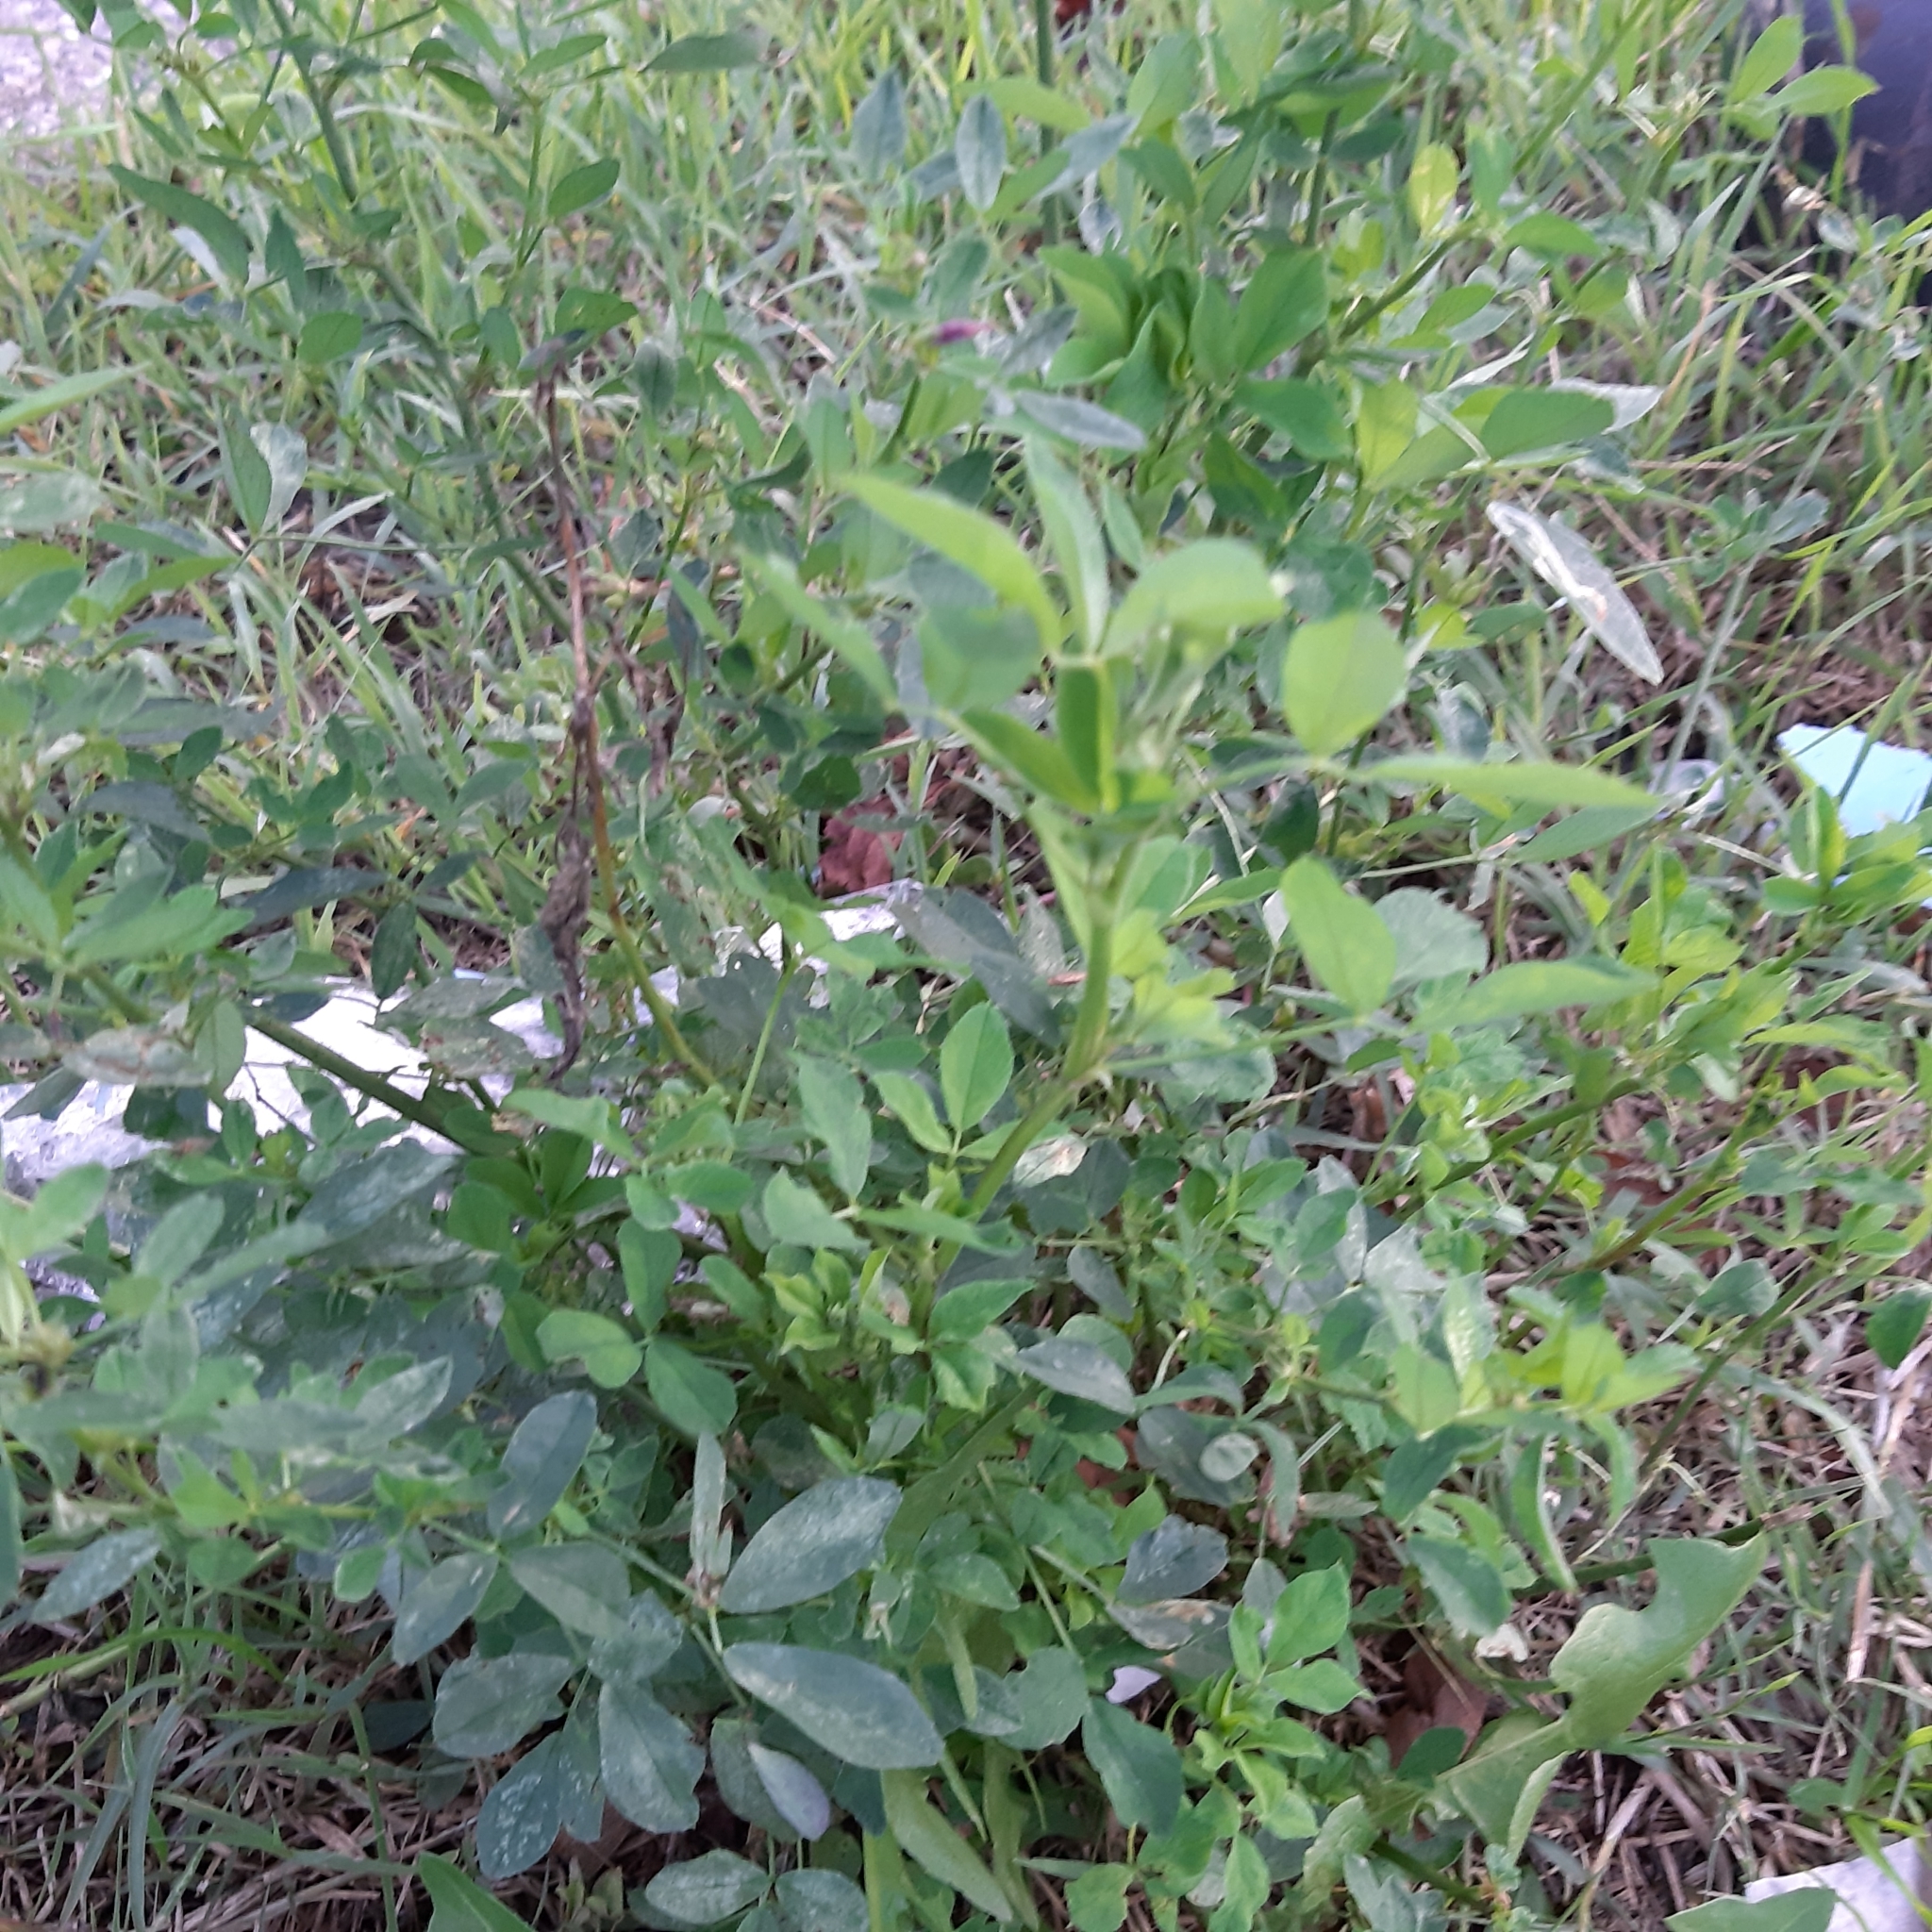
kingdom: Plantae
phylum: Tracheophyta
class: Magnoliopsida
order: Fabales
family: Fabaceae
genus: Medicago
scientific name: Medicago sativa
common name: Alfalfa
